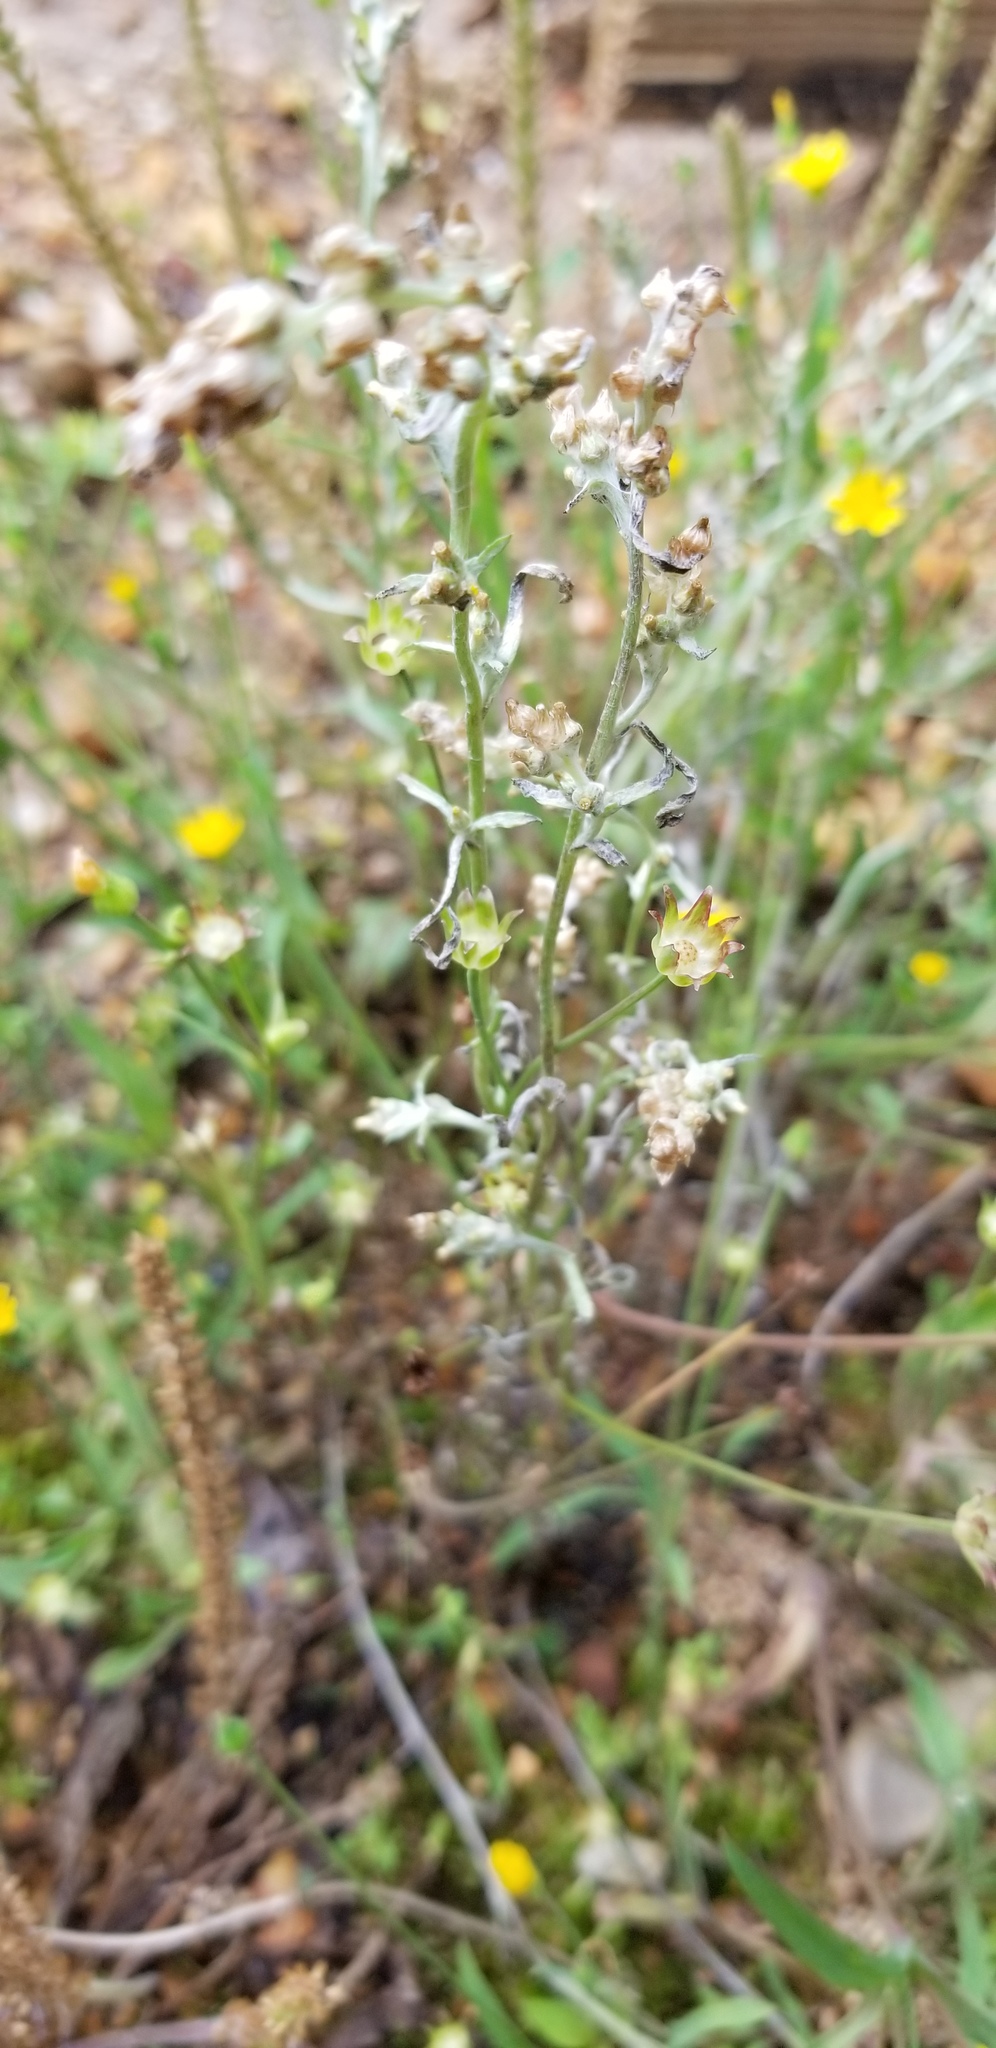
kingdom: Plantae
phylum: Tracheophyta
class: Magnoliopsida
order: Asterales
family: Asteraceae
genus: Gamochaeta
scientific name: Gamochaeta antillana
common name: Delicate everlasting
